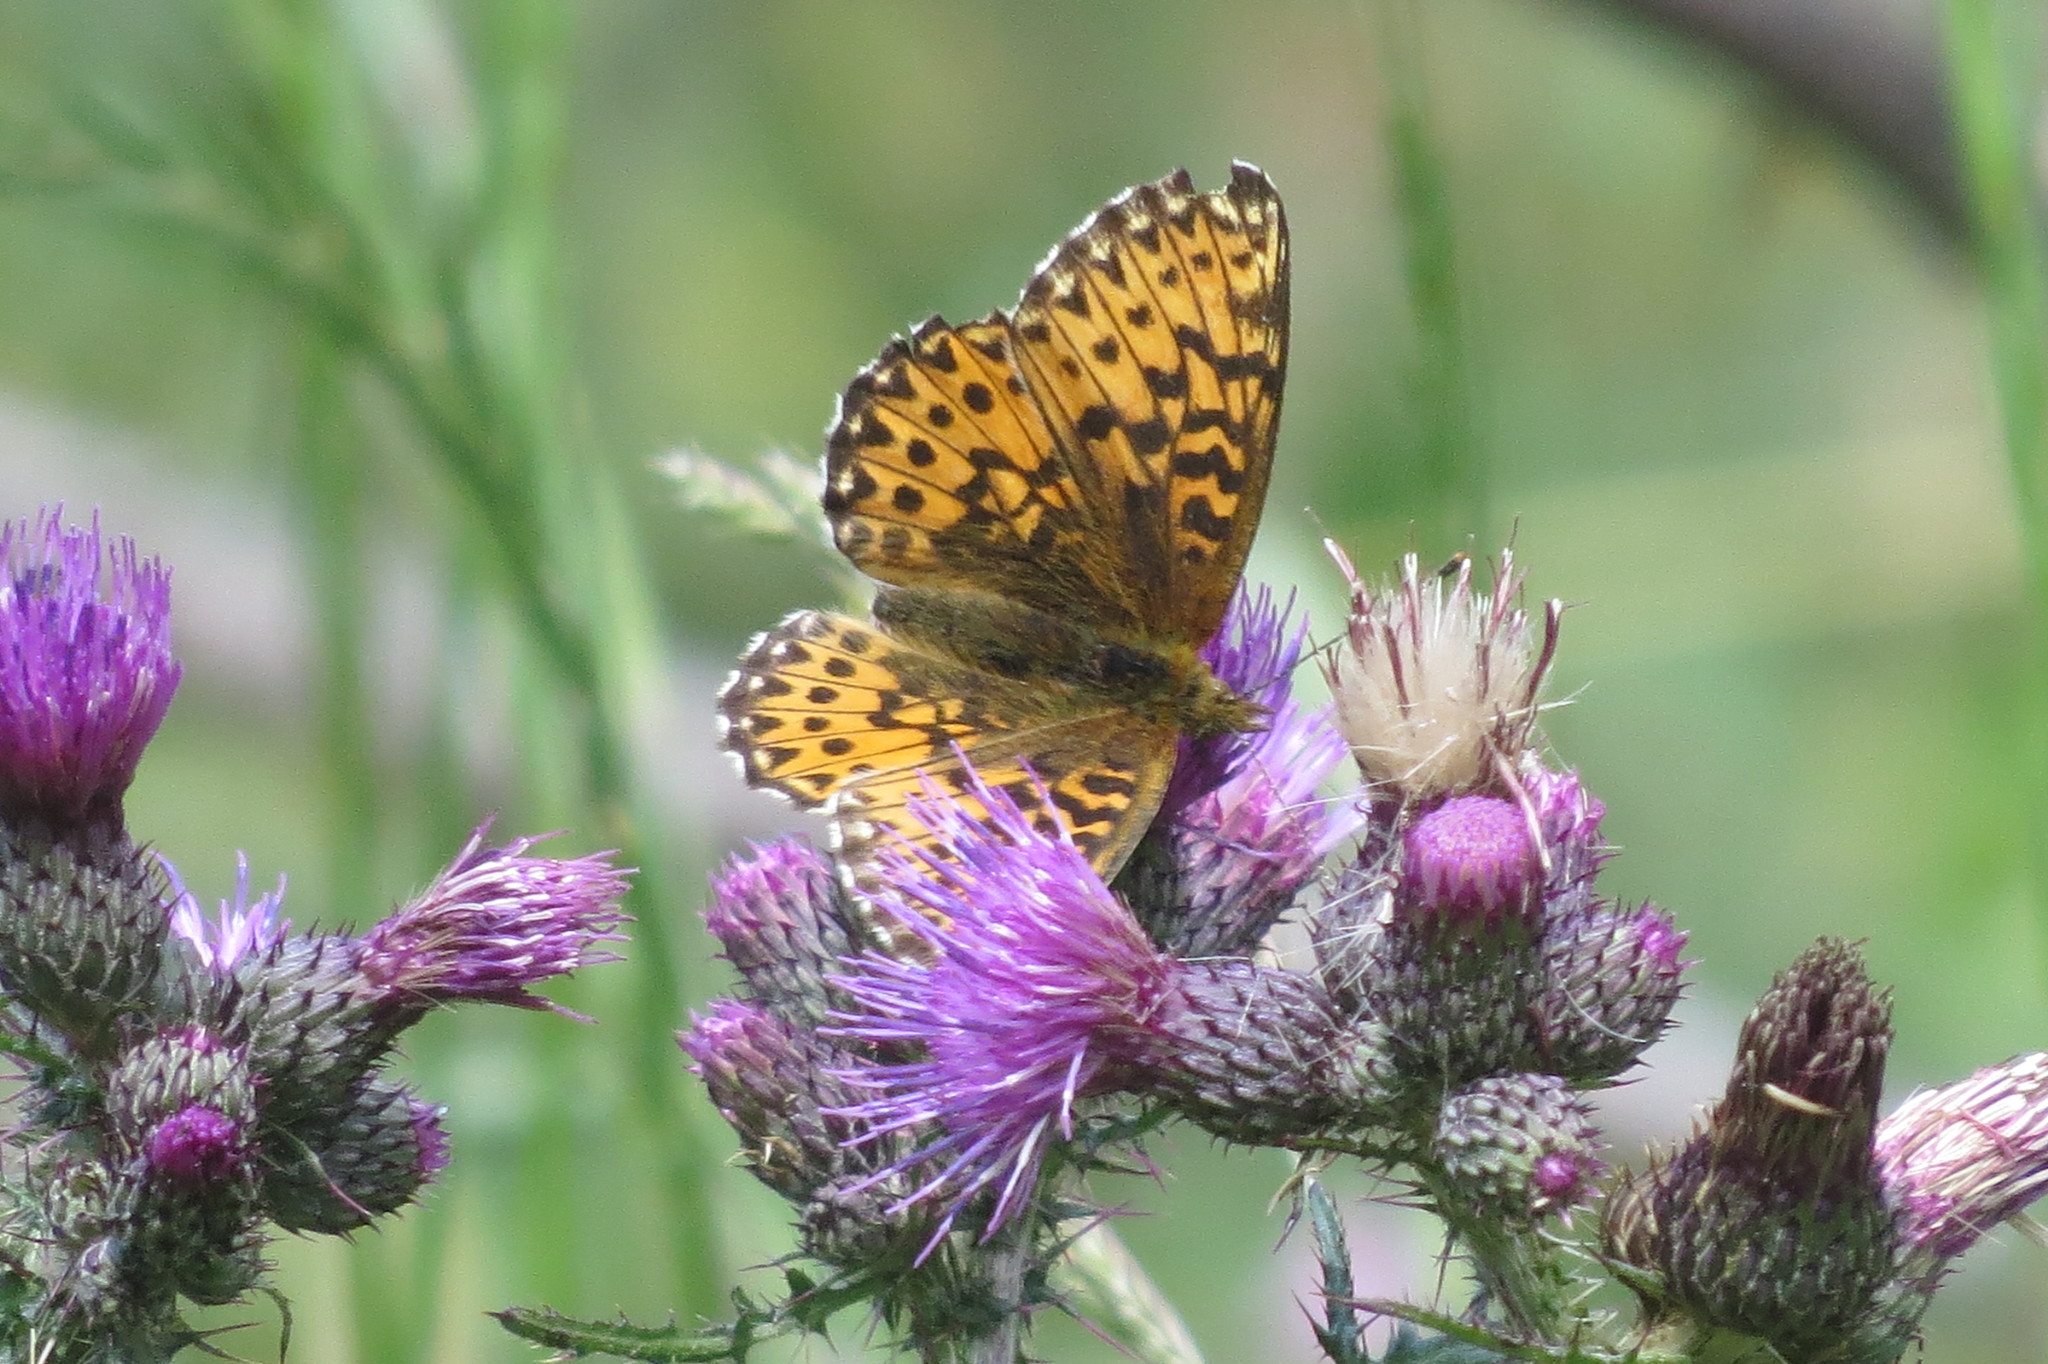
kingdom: Animalia
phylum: Arthropoda
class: Insecta
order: Lepidoptera
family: Nymphalidae
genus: Boloria
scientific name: Boloria titania
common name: Titania's fritillary
